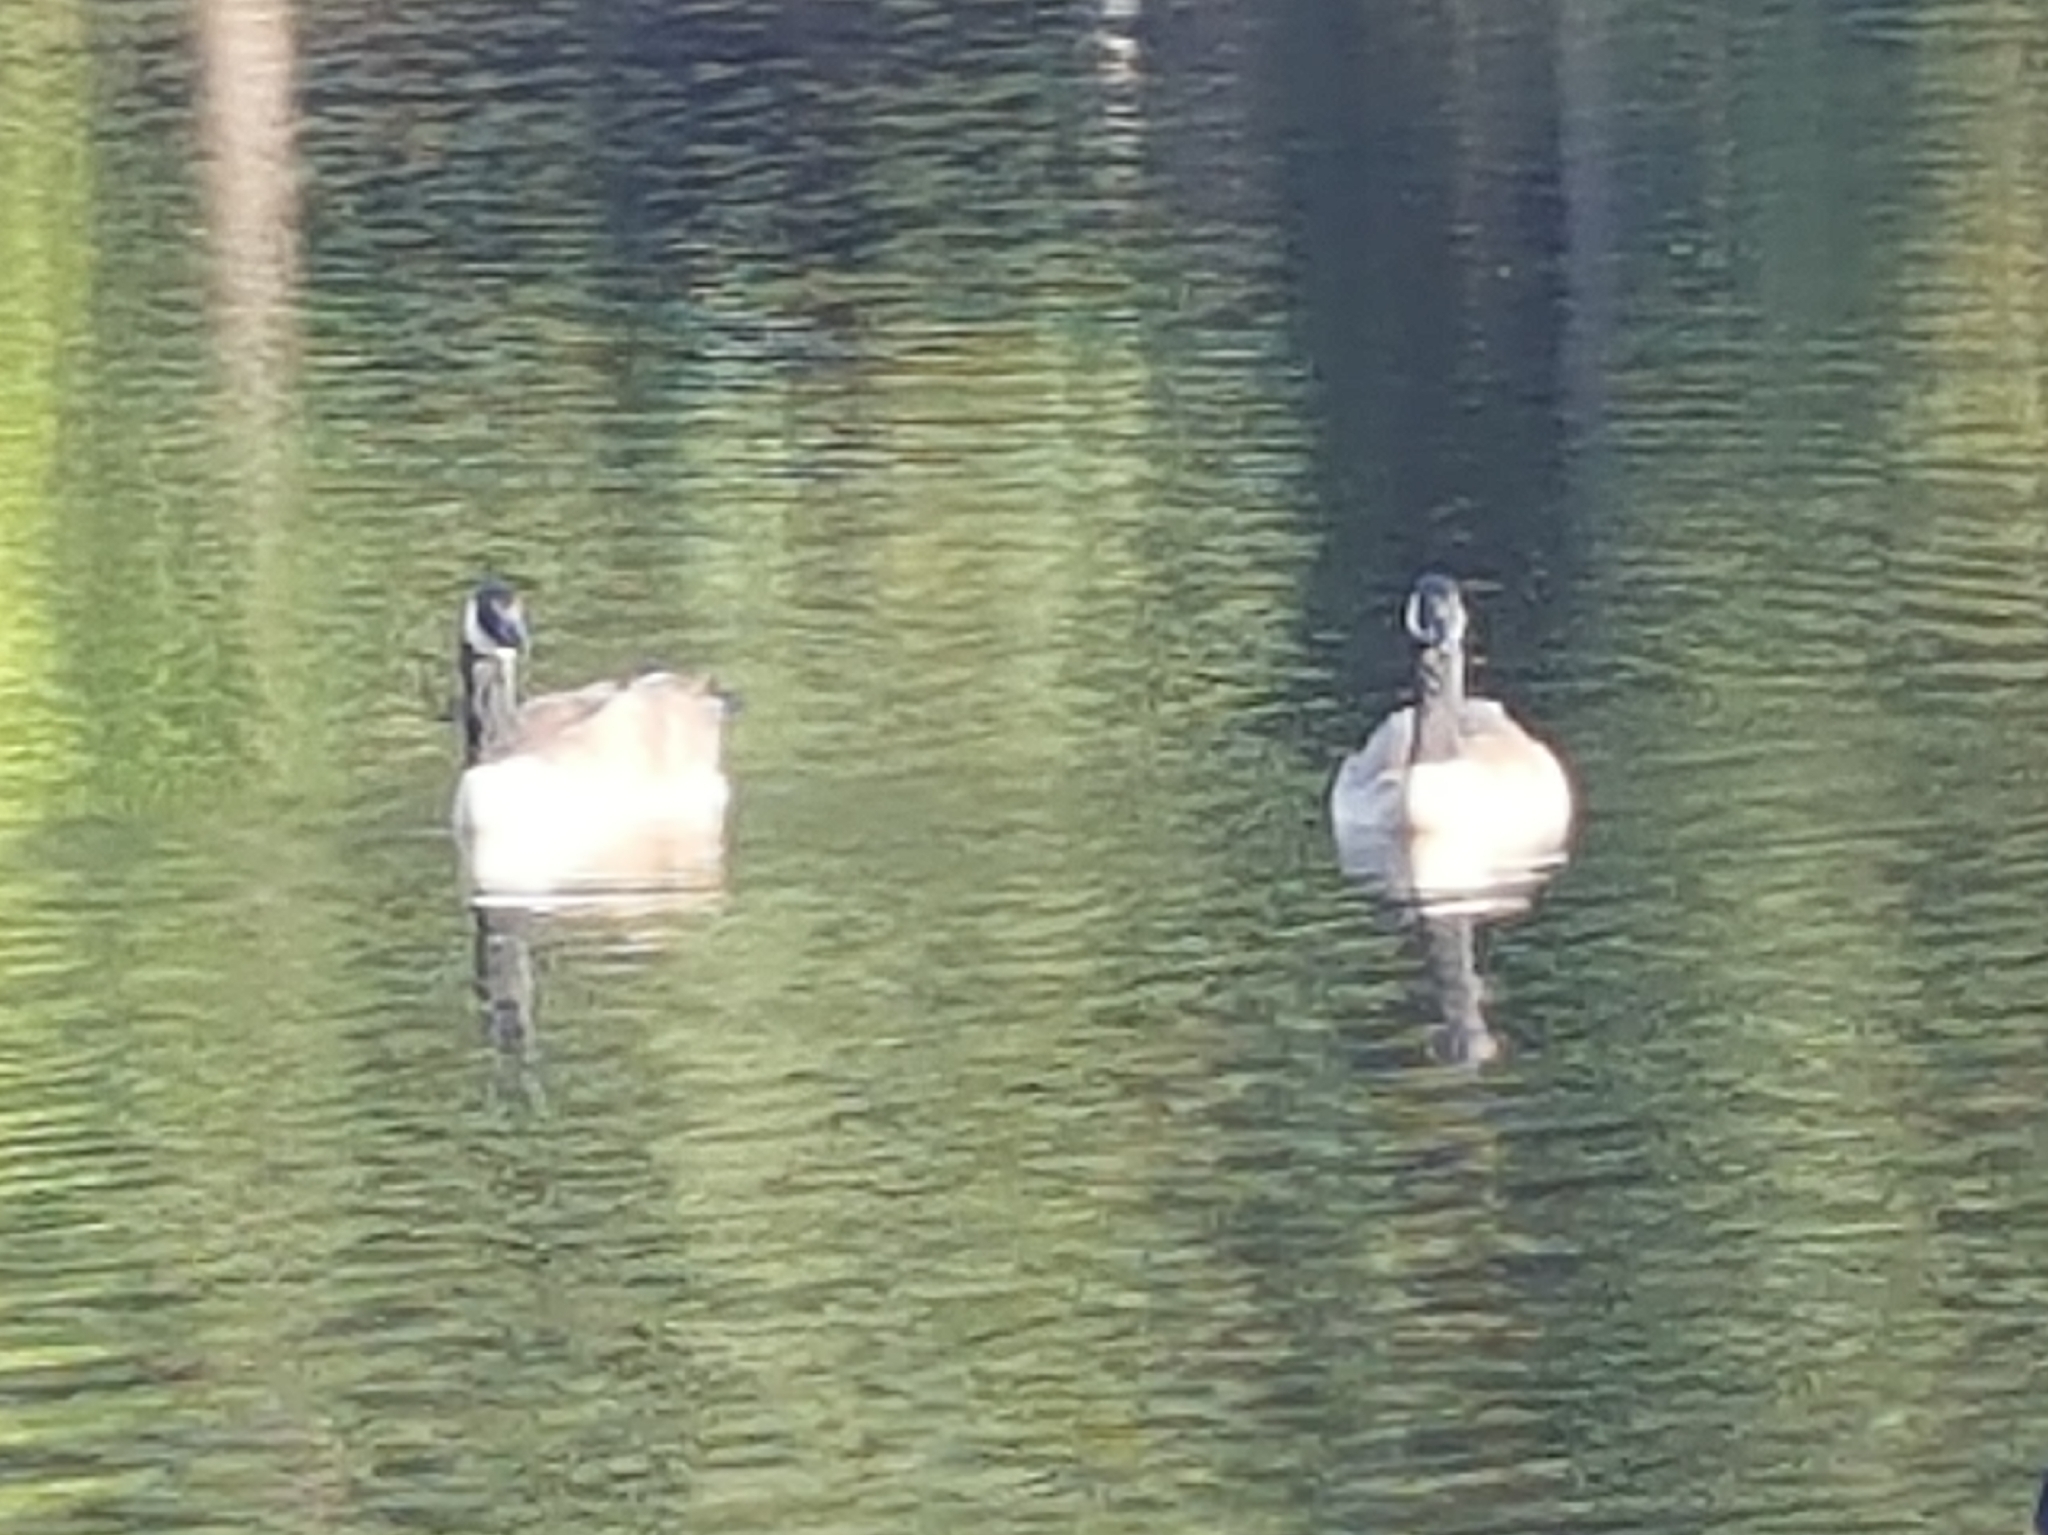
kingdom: Animalia
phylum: Chordata
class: Aves
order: Anseriformes
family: Anatidae
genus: Branta
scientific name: Branta canadensis
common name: Canada goose
